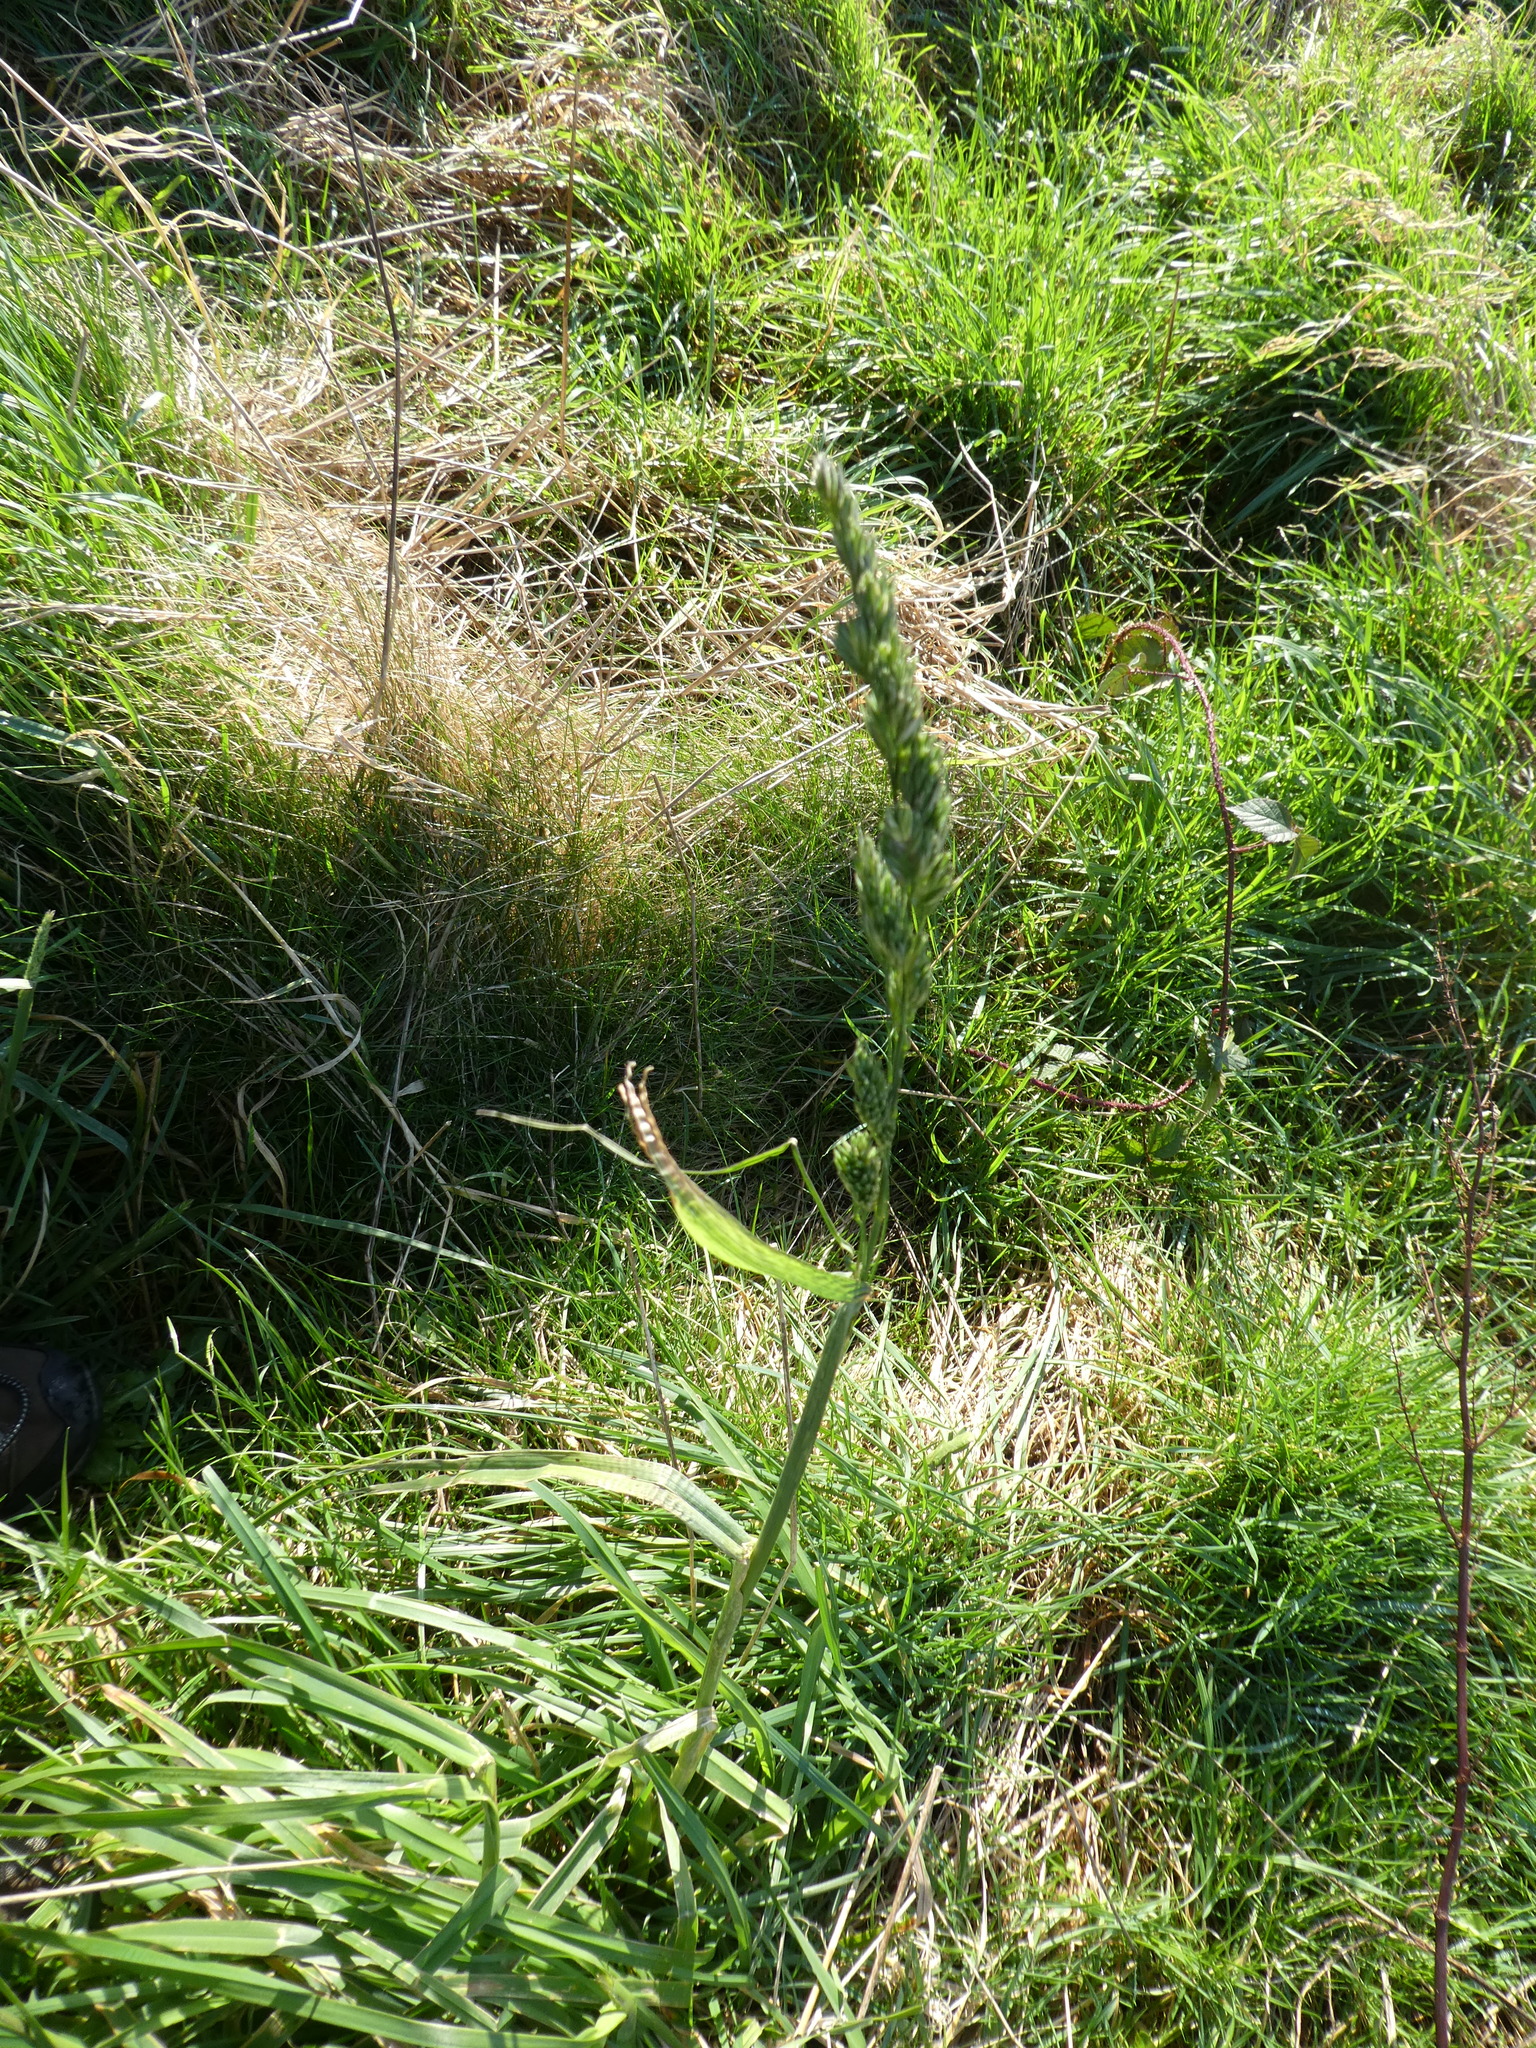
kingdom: Plantae
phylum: Tracheophyta
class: Liliopsida
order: Poales
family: Poaceae
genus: Dactylis
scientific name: Dactylis glomerata
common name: Orchardgrass
